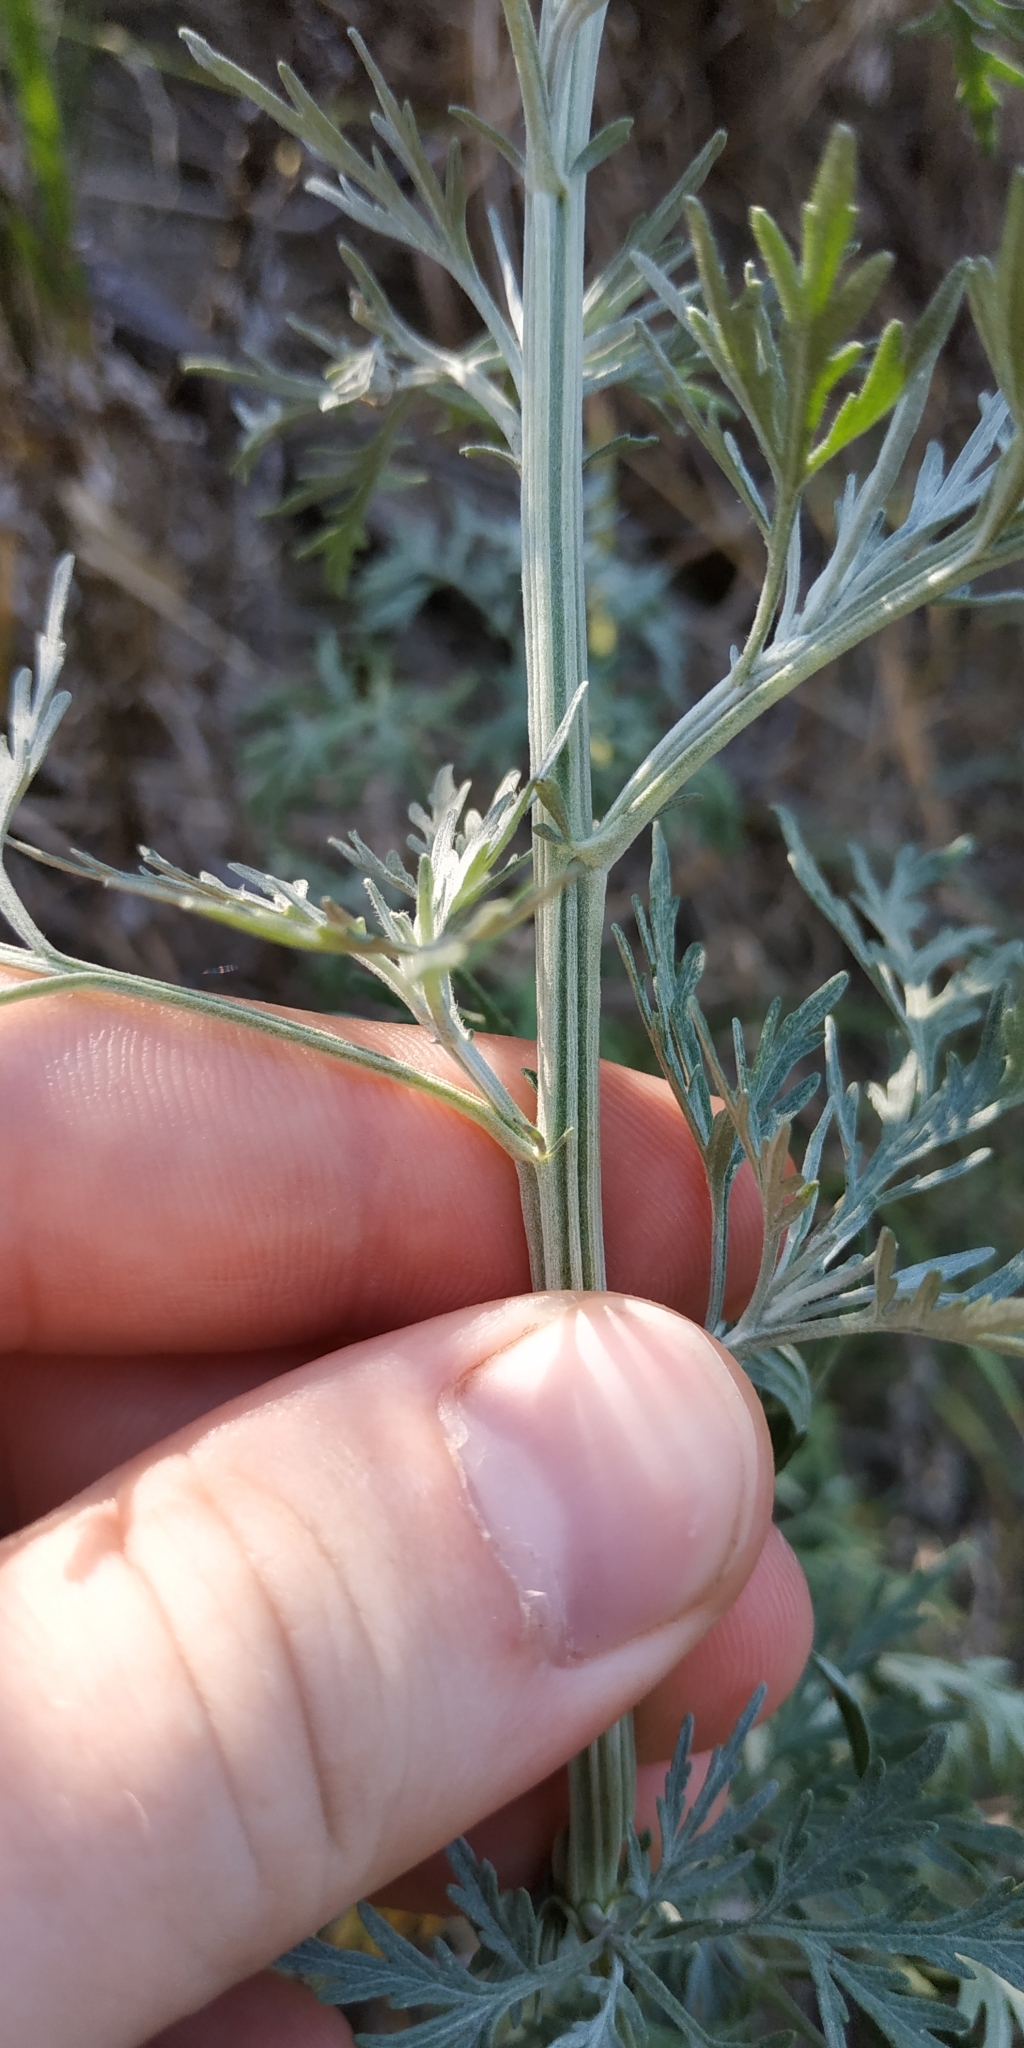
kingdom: Plantae
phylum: Tracheophyta
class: Magnoliopsida
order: Asterales
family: Asteraceae
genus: Artemisia
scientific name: Artemisia sieversiana
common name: Sieversian wormwood
